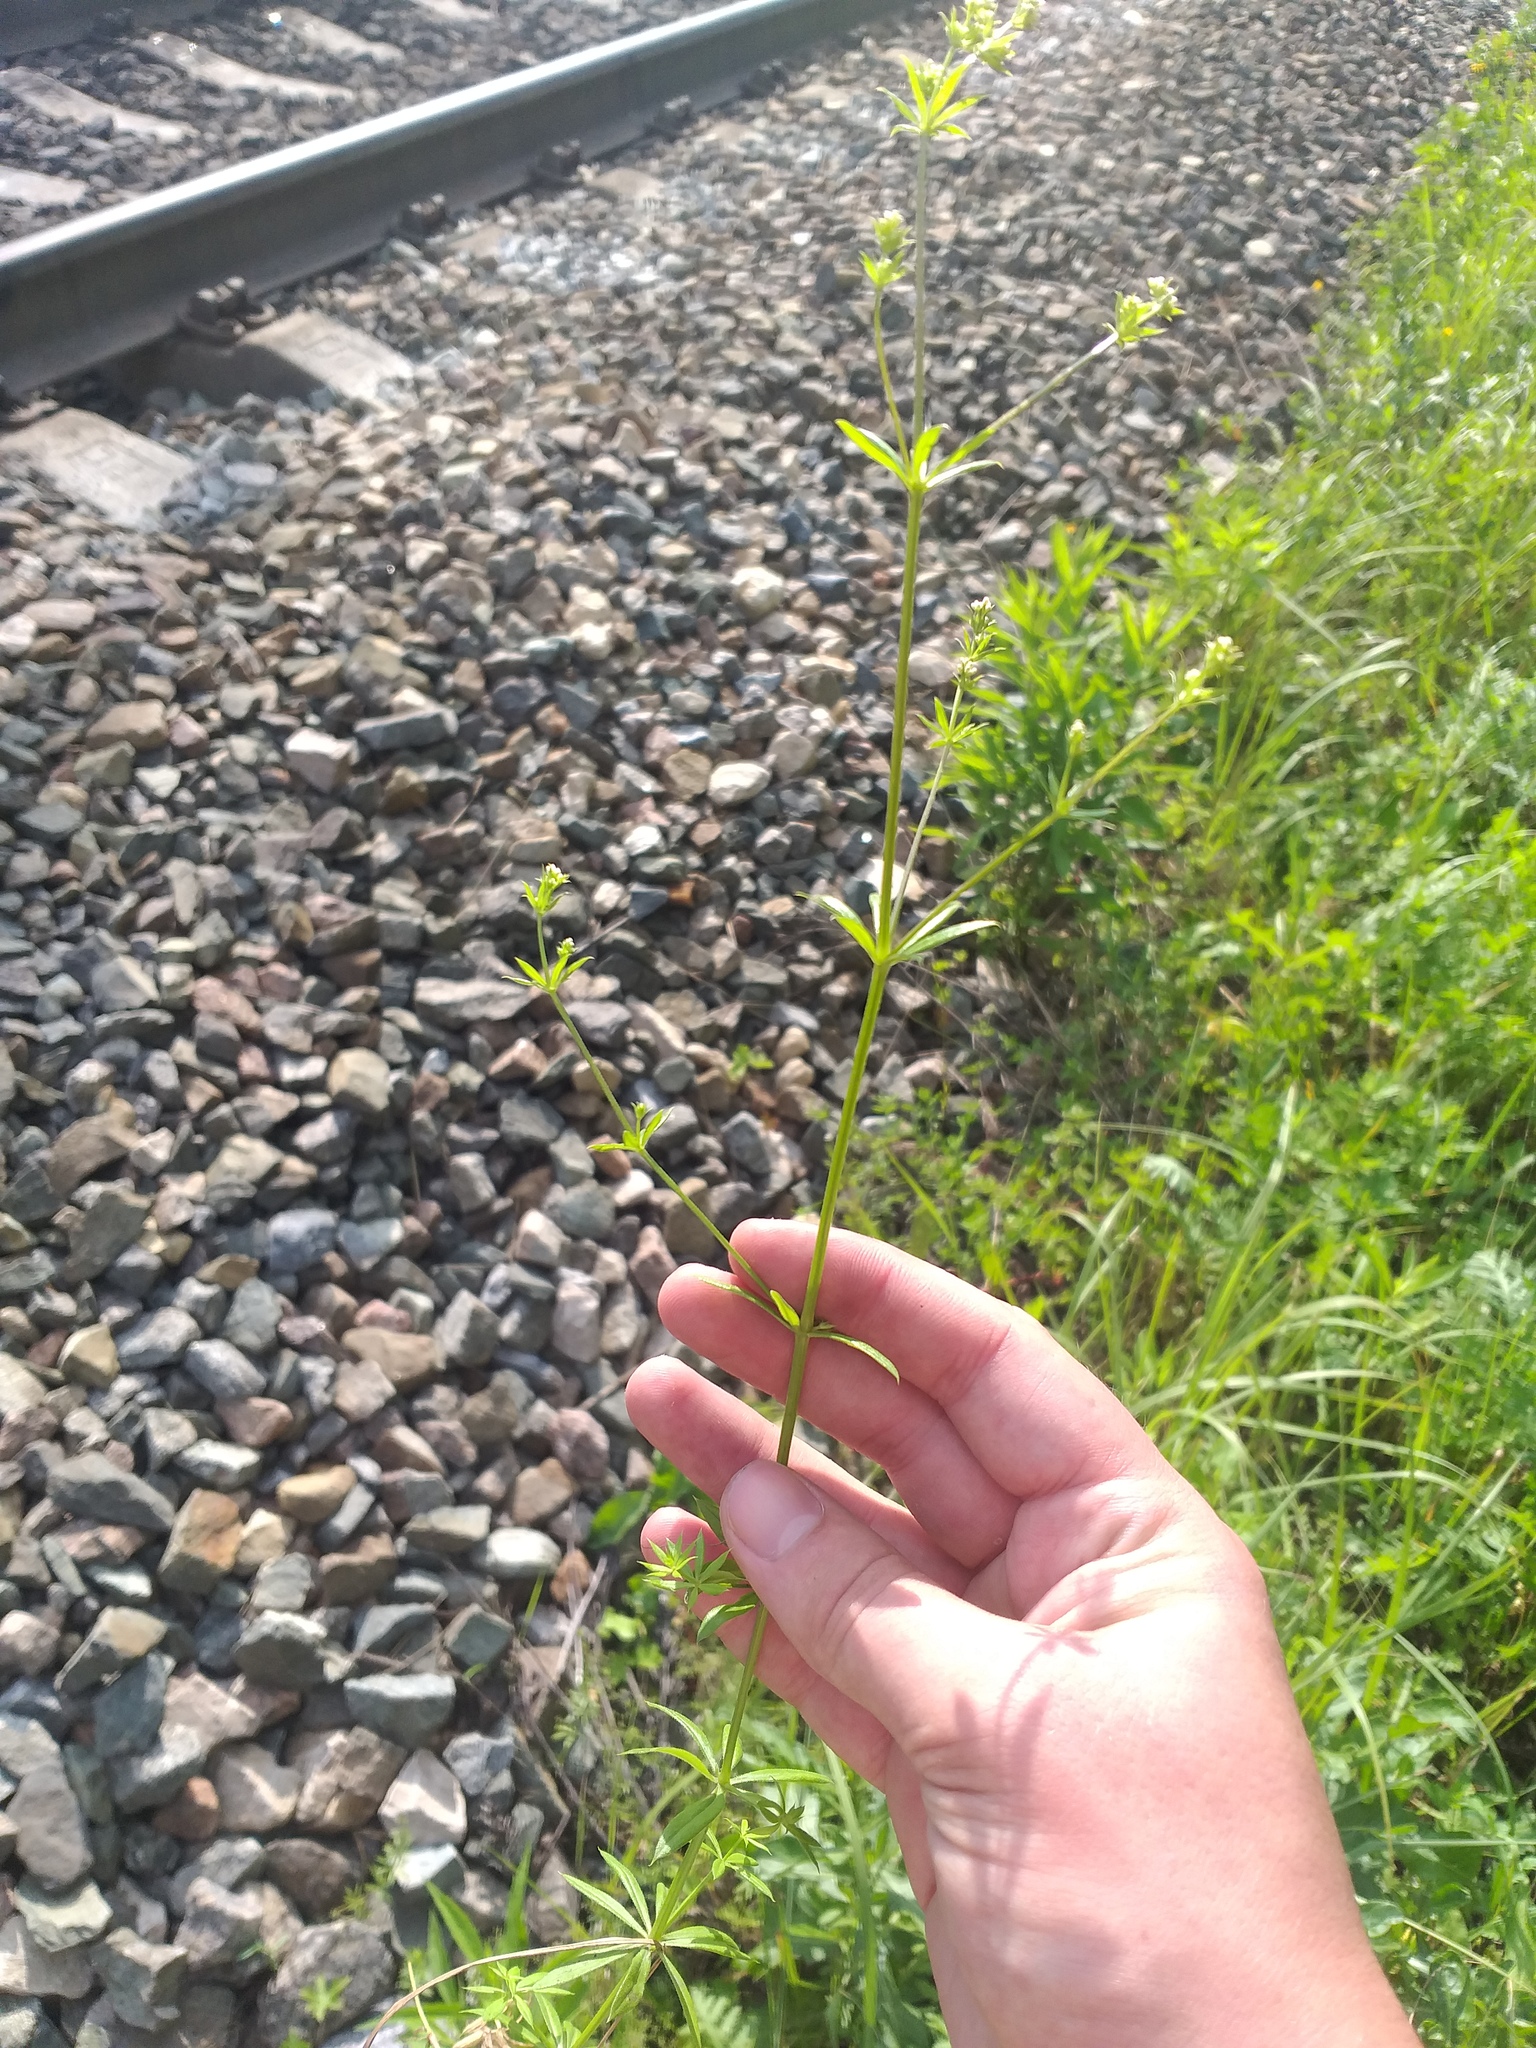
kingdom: Plantae
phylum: Tracheophyta
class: Magnoliopsida
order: Gentianales
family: Rubiaceae
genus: Galium
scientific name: Galium rivale
